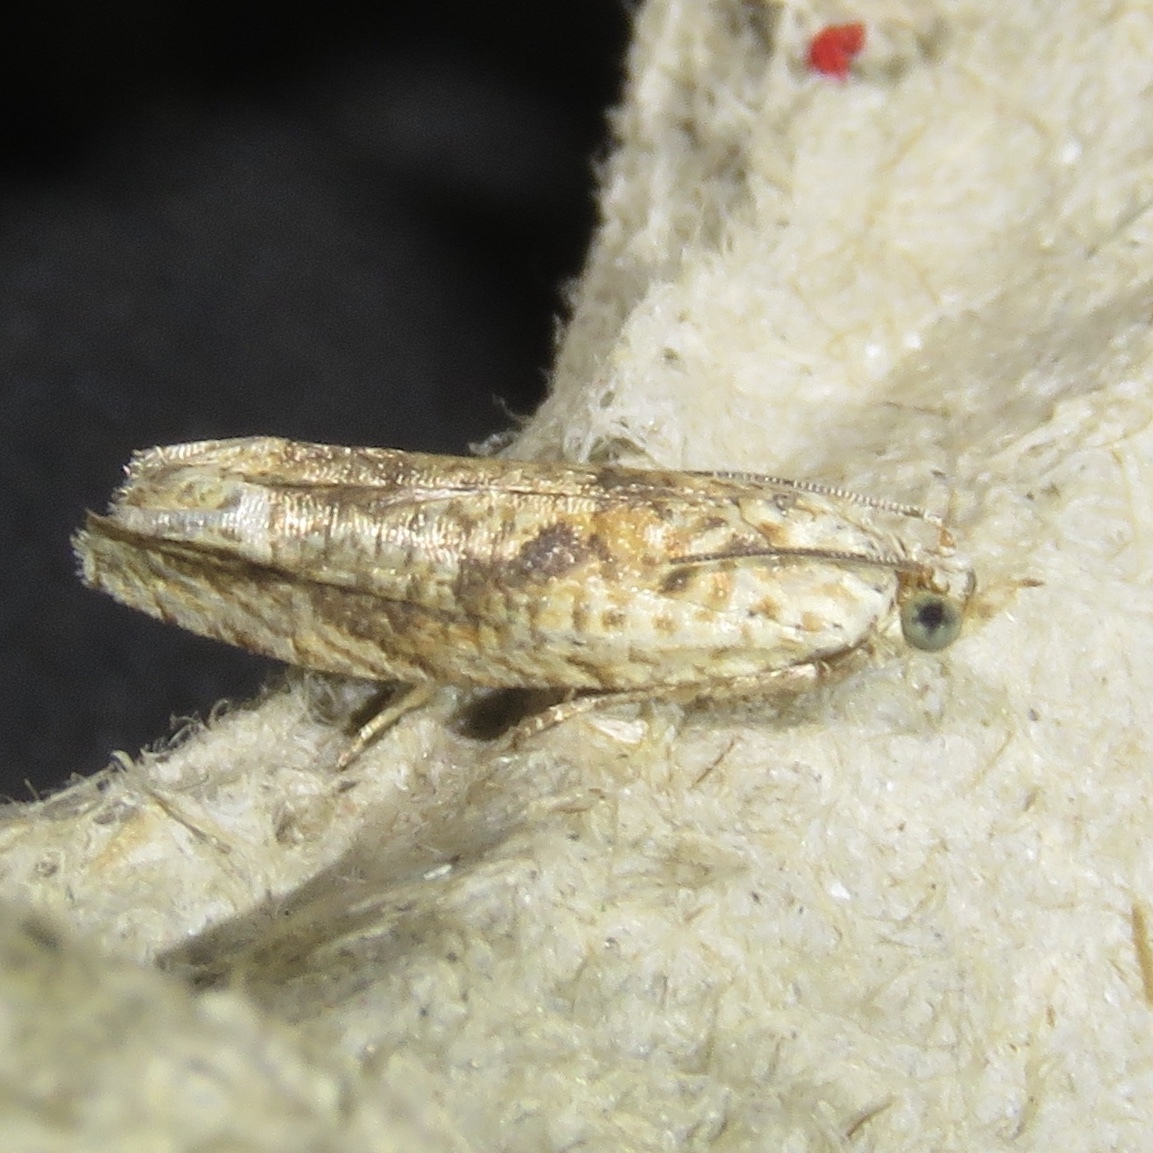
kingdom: Animalia
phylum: Arthropoda
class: Insecta
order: Lepidoptera
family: Tortricidae
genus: Eucosma
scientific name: Eucosma ochrocephala
